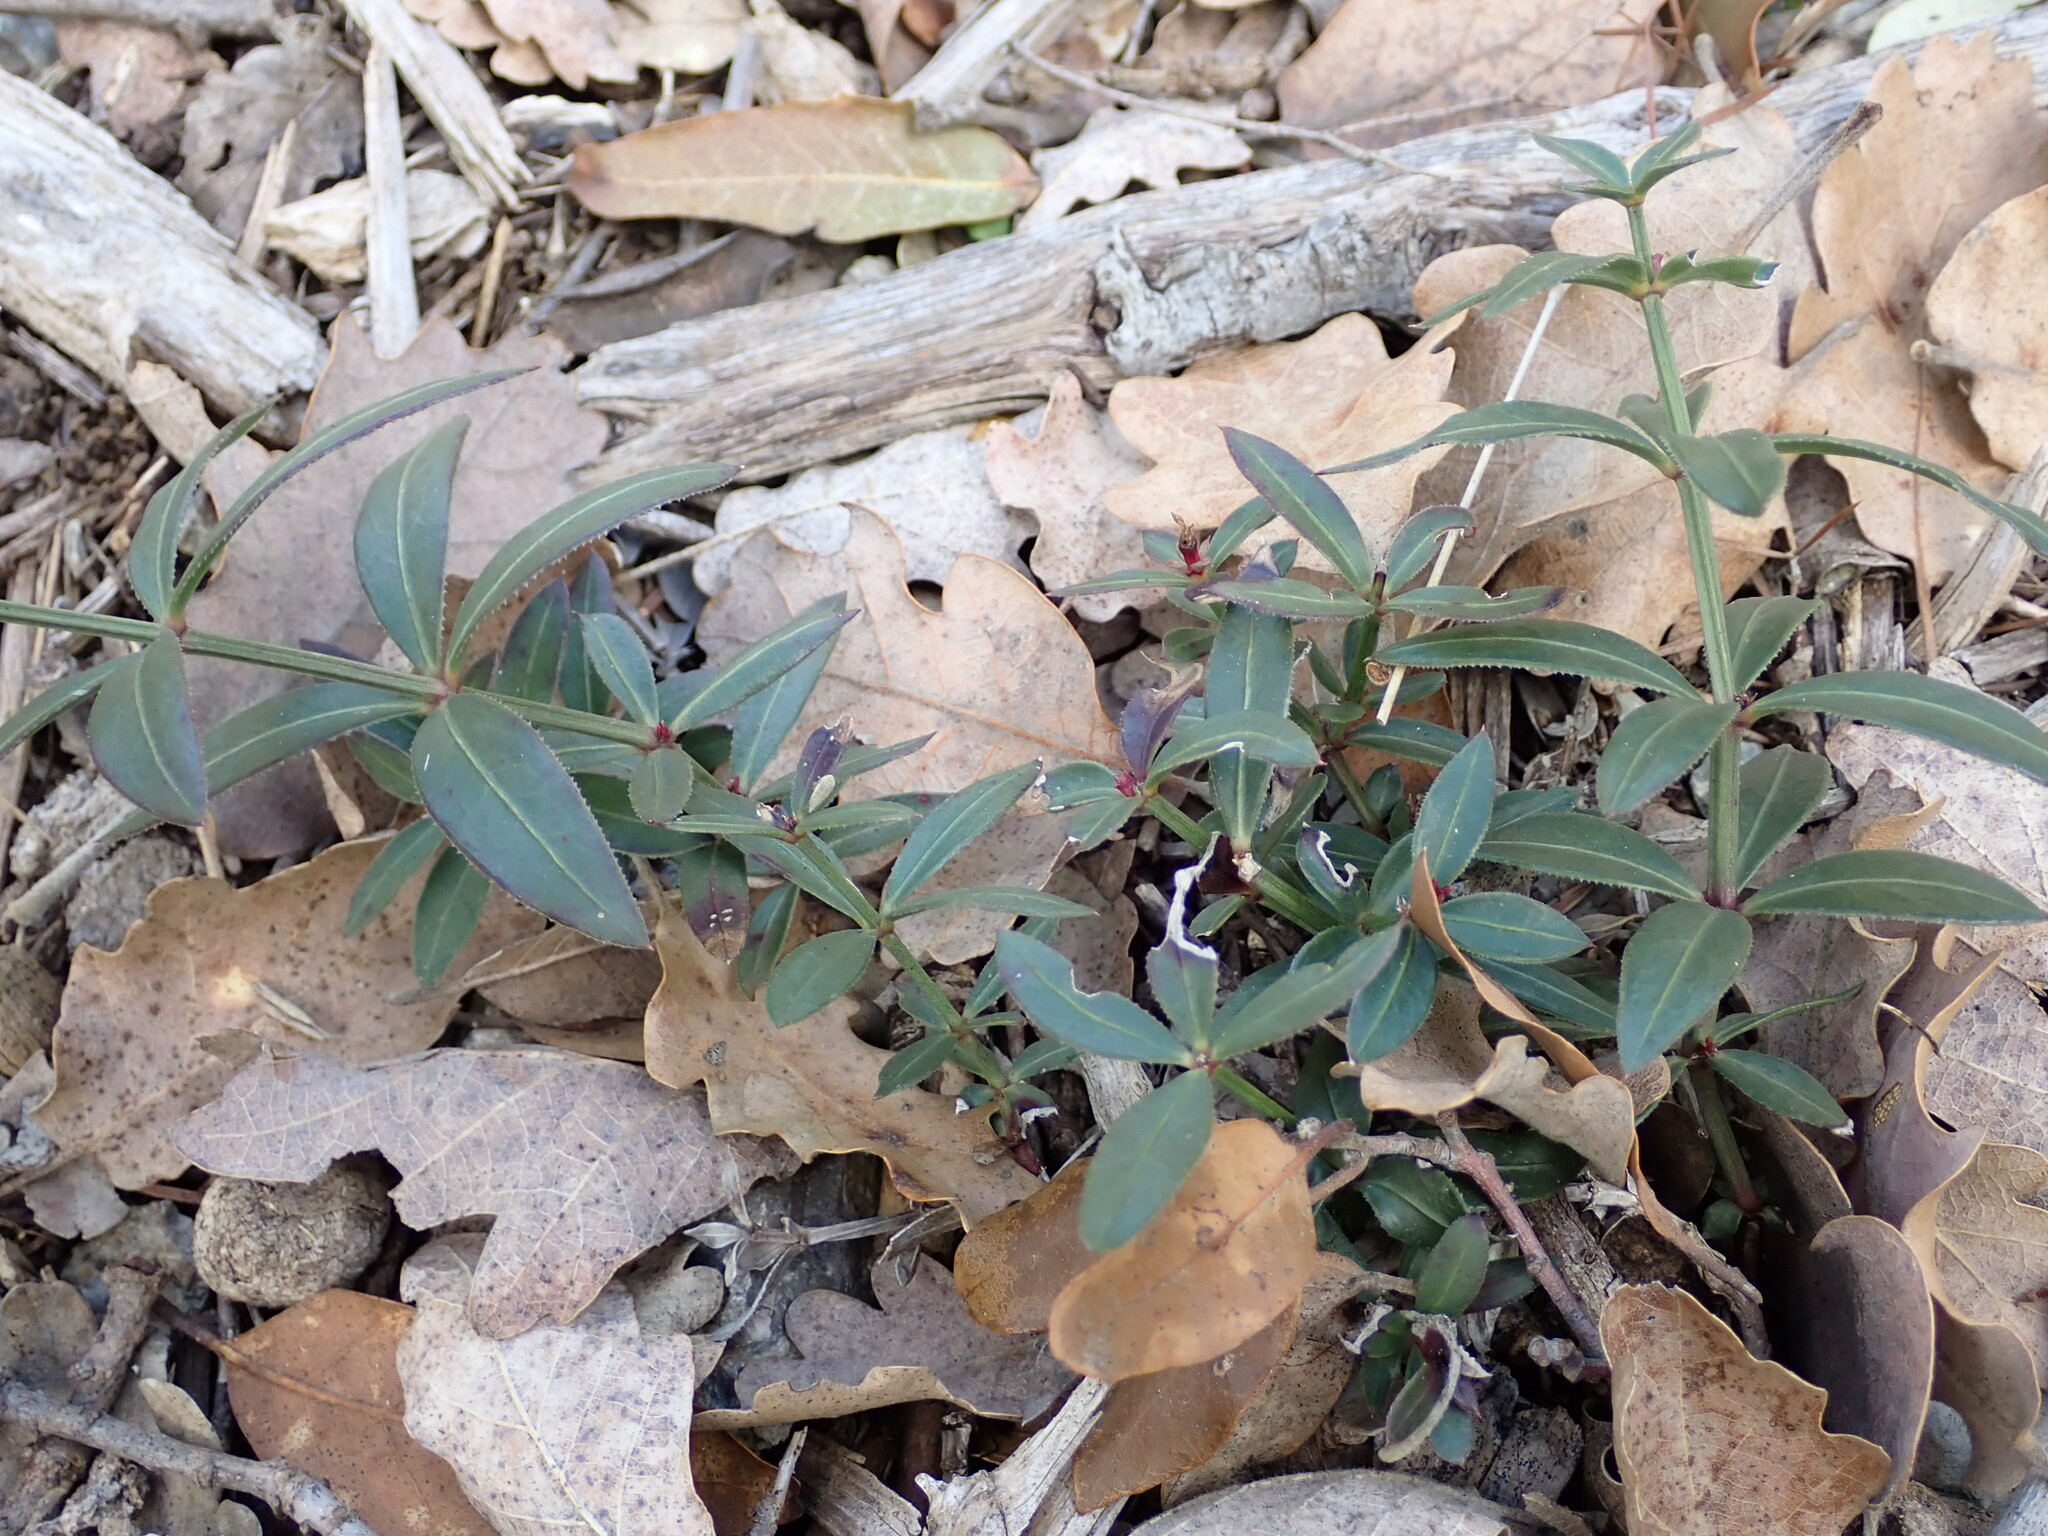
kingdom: Plantae
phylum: Tracheophyta
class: Magnoliopsida
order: Gentianales
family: Rubiaceae
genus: Rubia
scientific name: Rubia peregrina
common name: Wild madder
